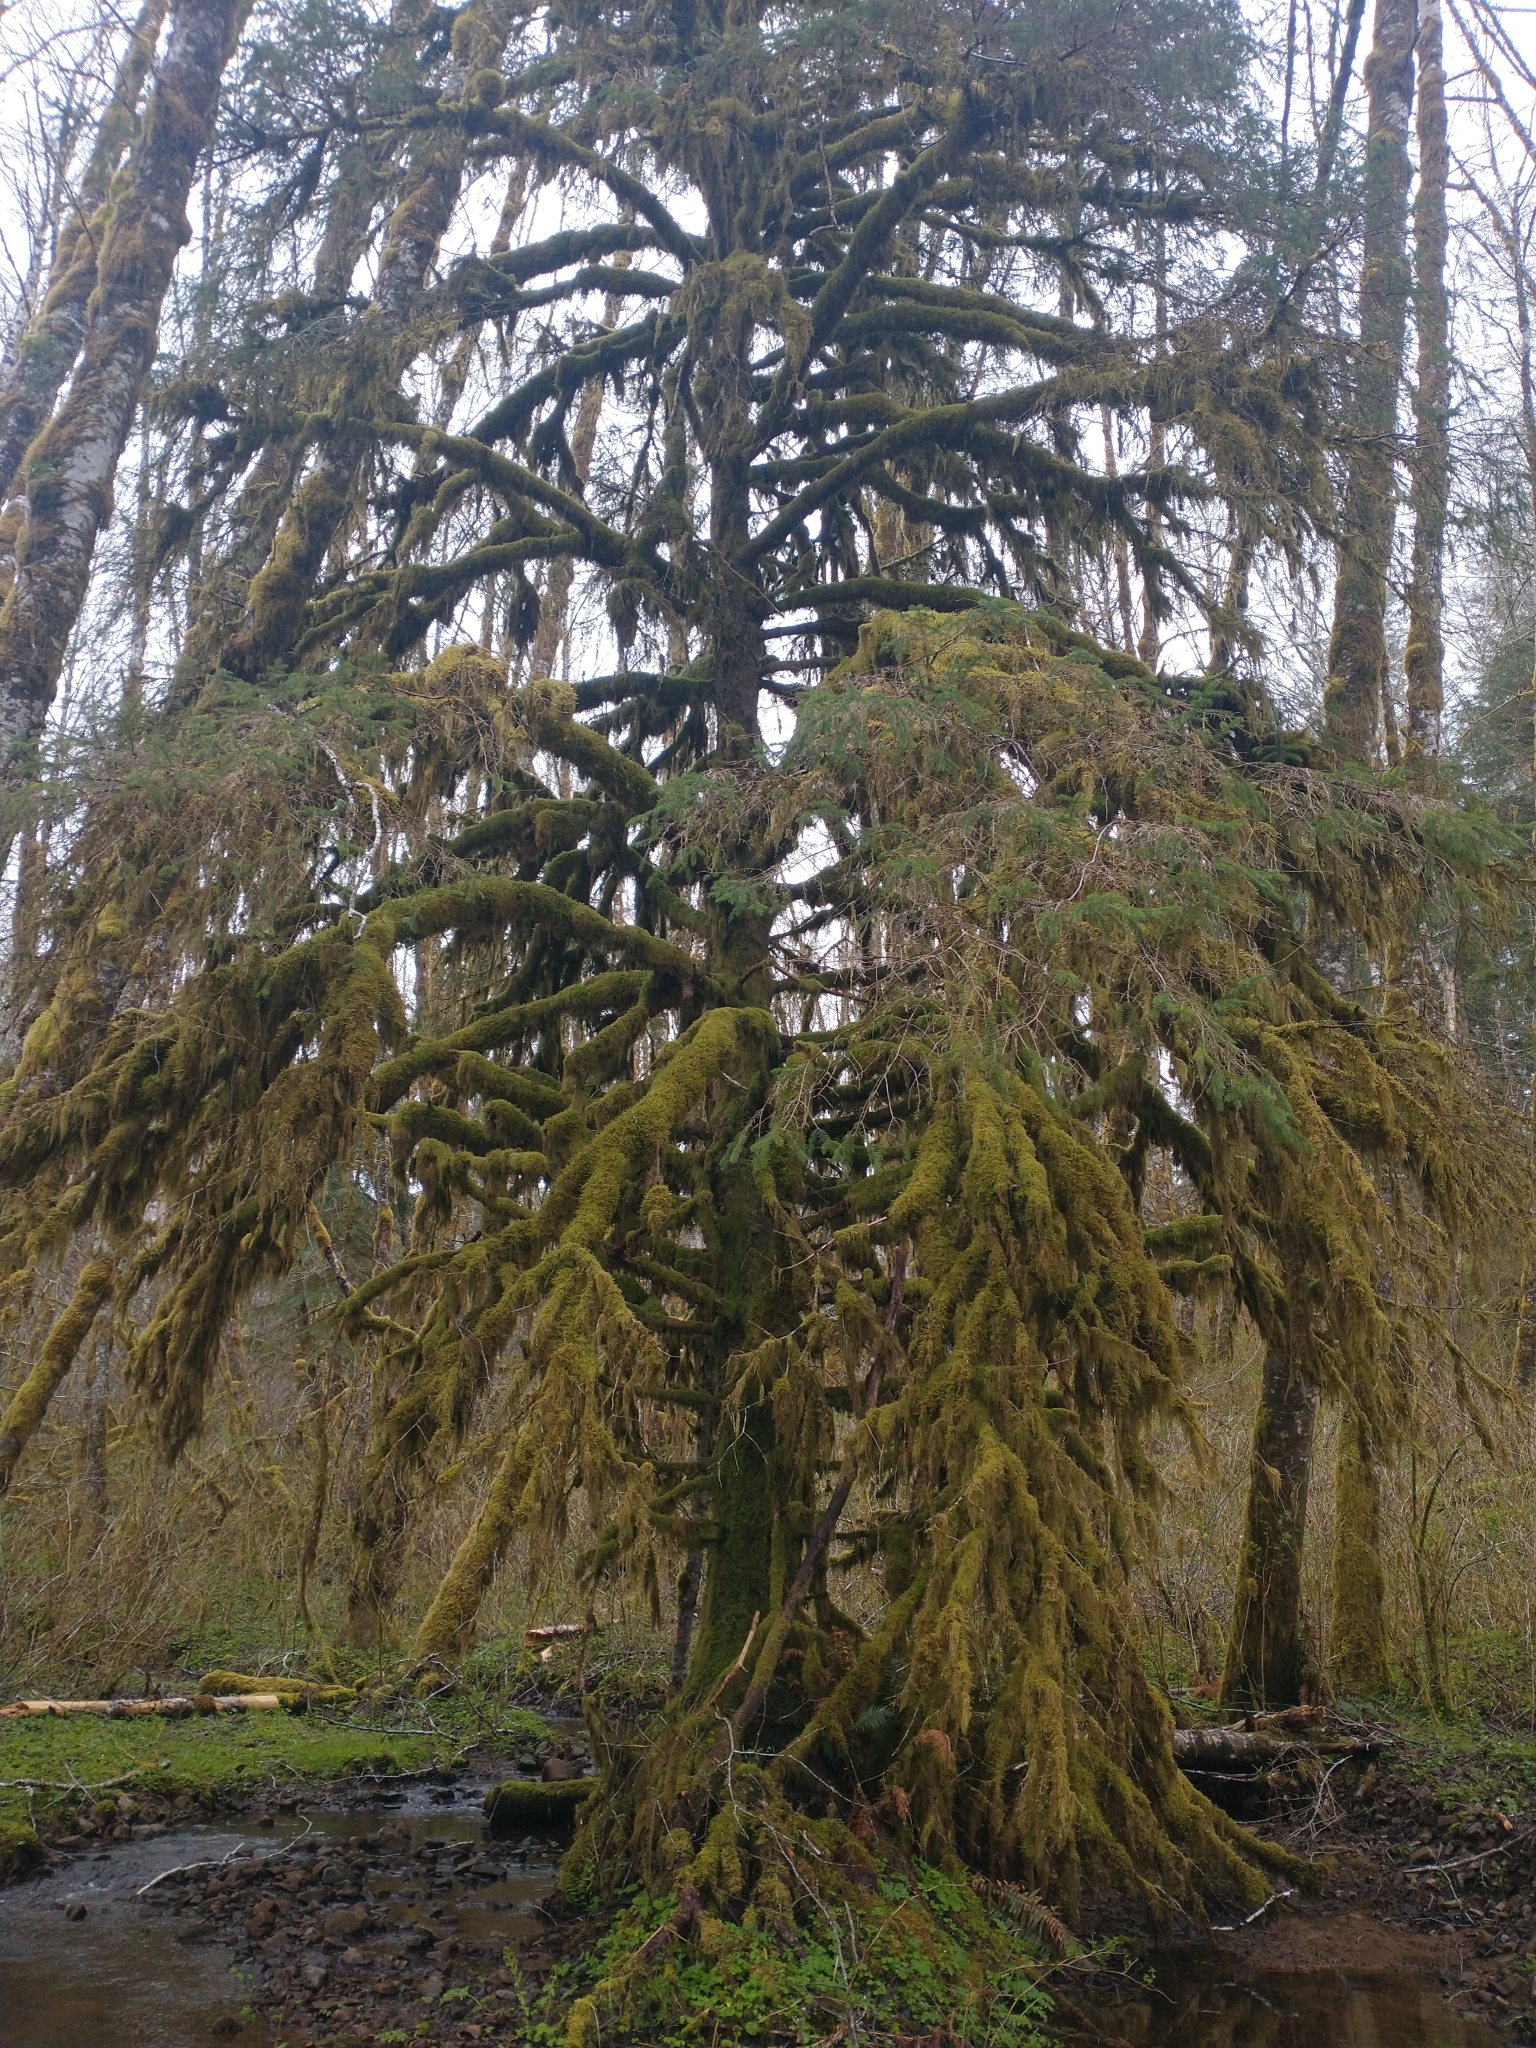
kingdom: Plantae
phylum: Tracheophyta
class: Pinopsida
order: Pinales
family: Pinaceae
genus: Picea
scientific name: Picea sitchensis
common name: Sitka spruce
